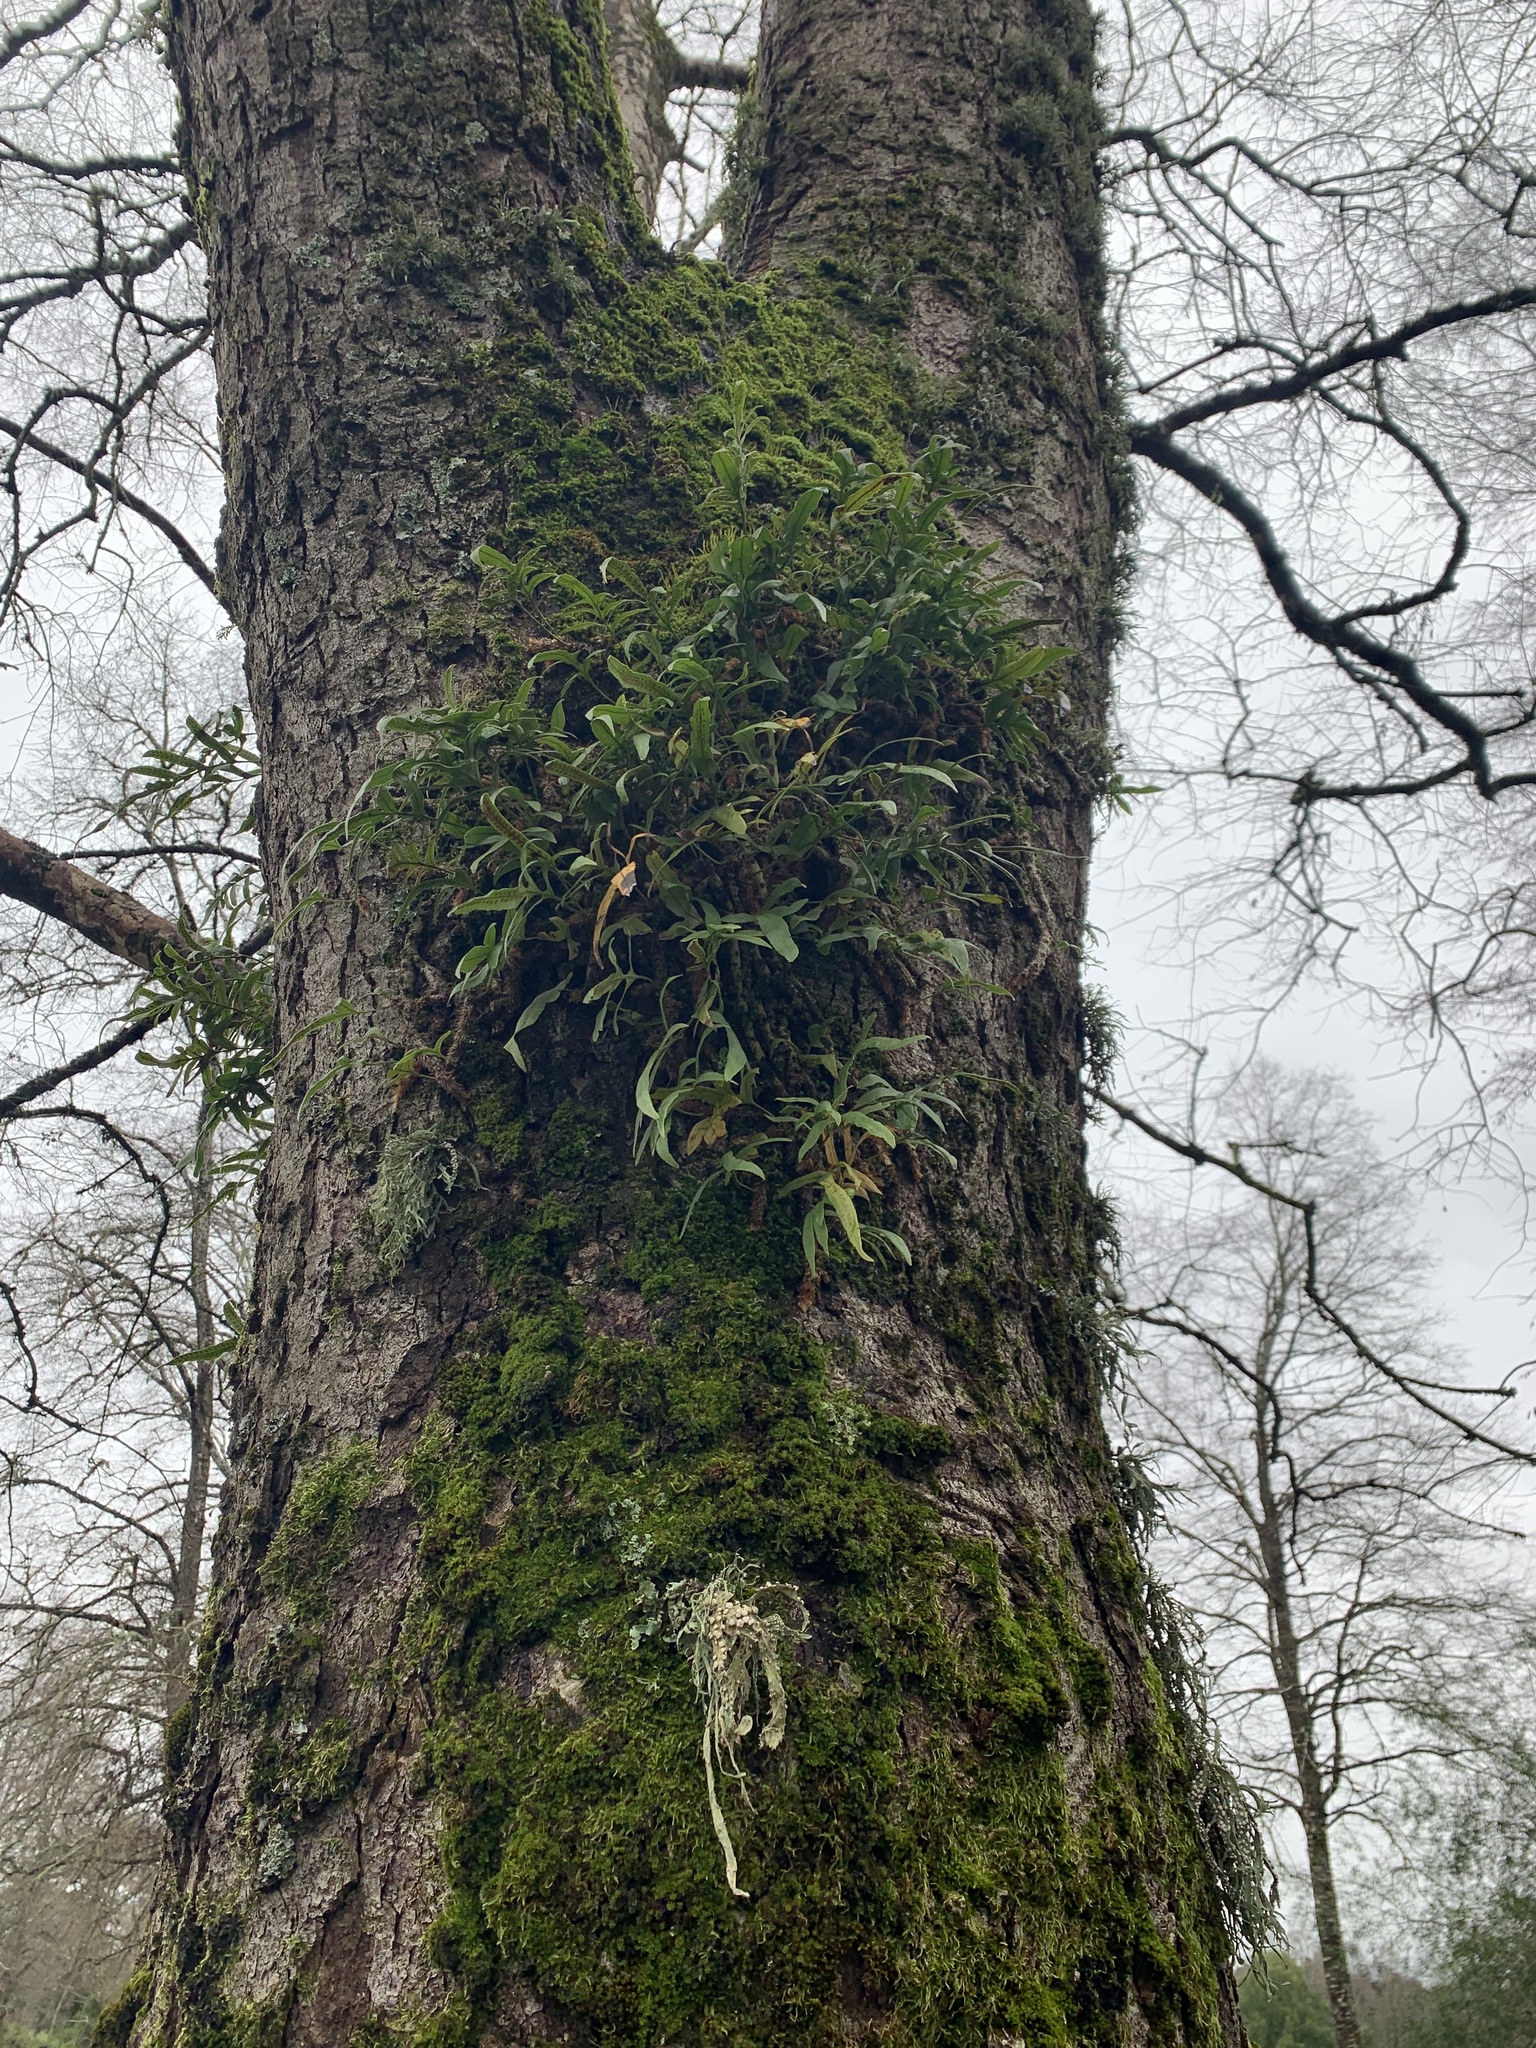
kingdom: Plantae
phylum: Tracheophyta
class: Polypodiopsida
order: Polypodiales
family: Polypodiaceae
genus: Synammia
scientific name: Synammia feuillei
